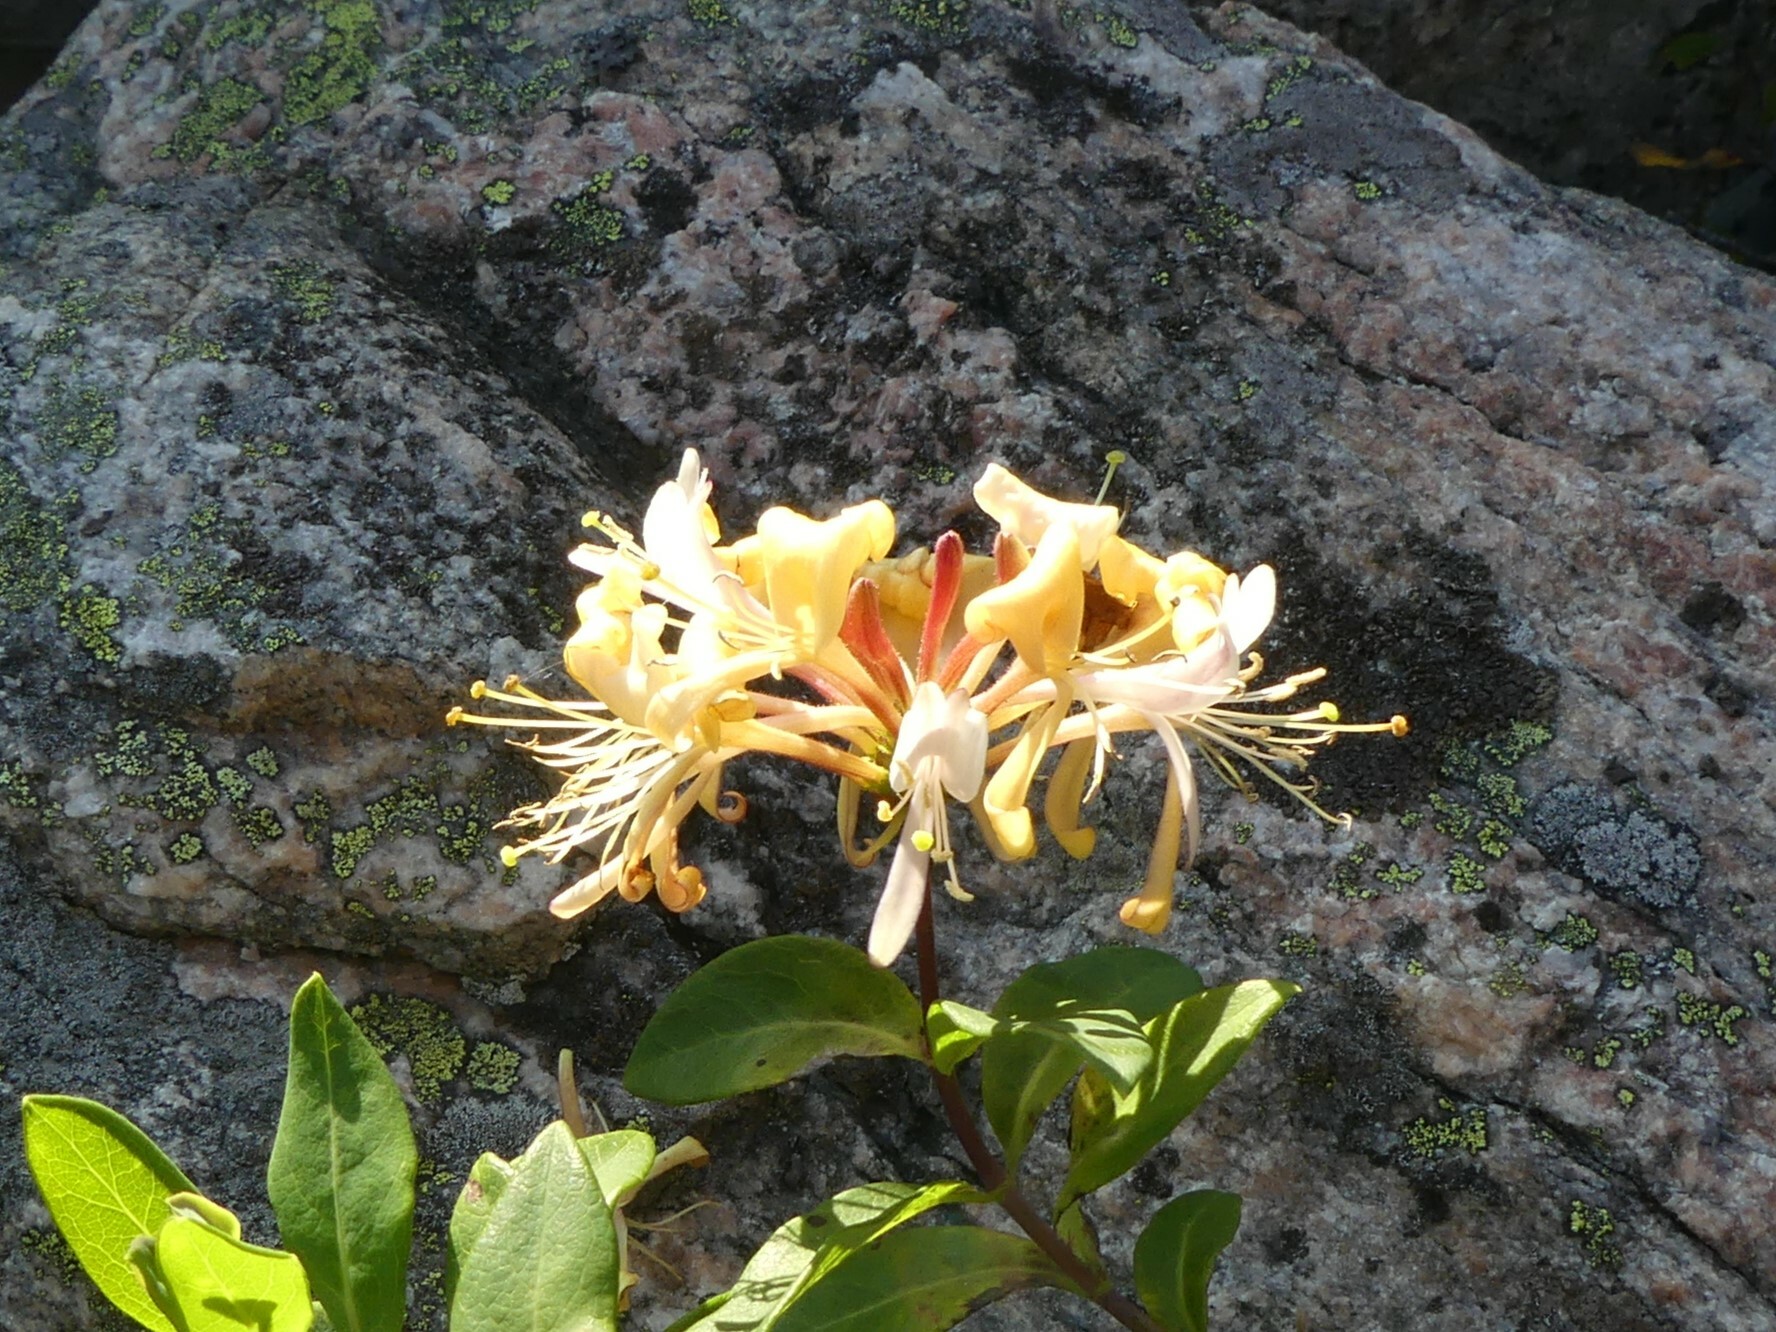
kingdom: Plantae
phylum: Tracheophyta
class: Magnoliopsida
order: Dipsacales
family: Caprifoliaceae
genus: Lonicera
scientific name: Lonicera periclymenum
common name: European honeysuckle
